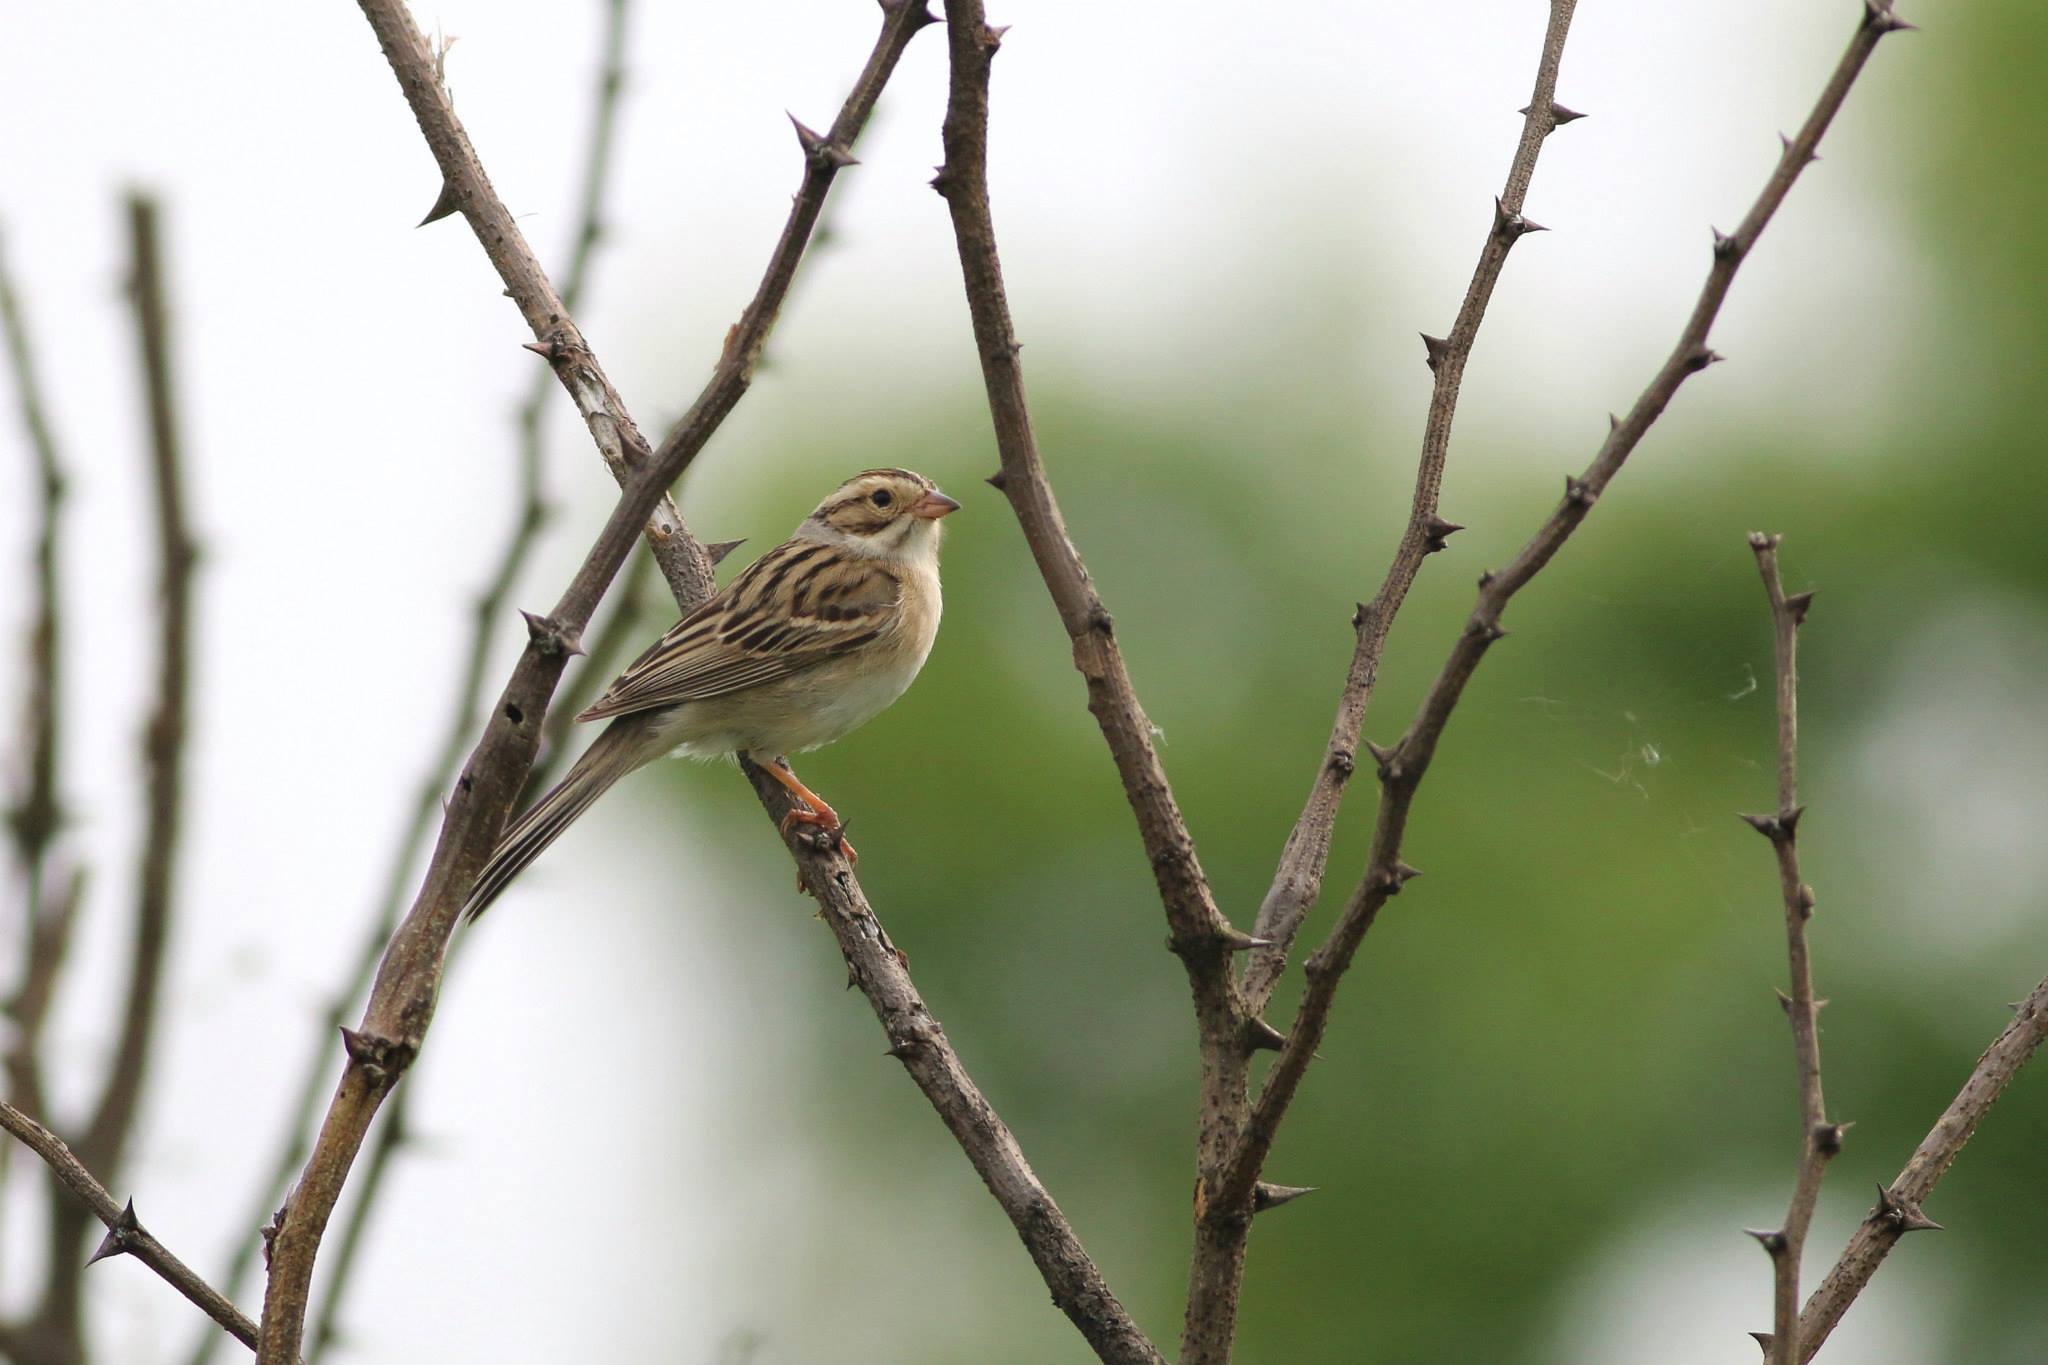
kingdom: Animalia
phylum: Chordata
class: Aves
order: Passeriformes
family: Passerellidae
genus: Spizella
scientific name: Spizella pallida
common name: Clay-colored sparrow
